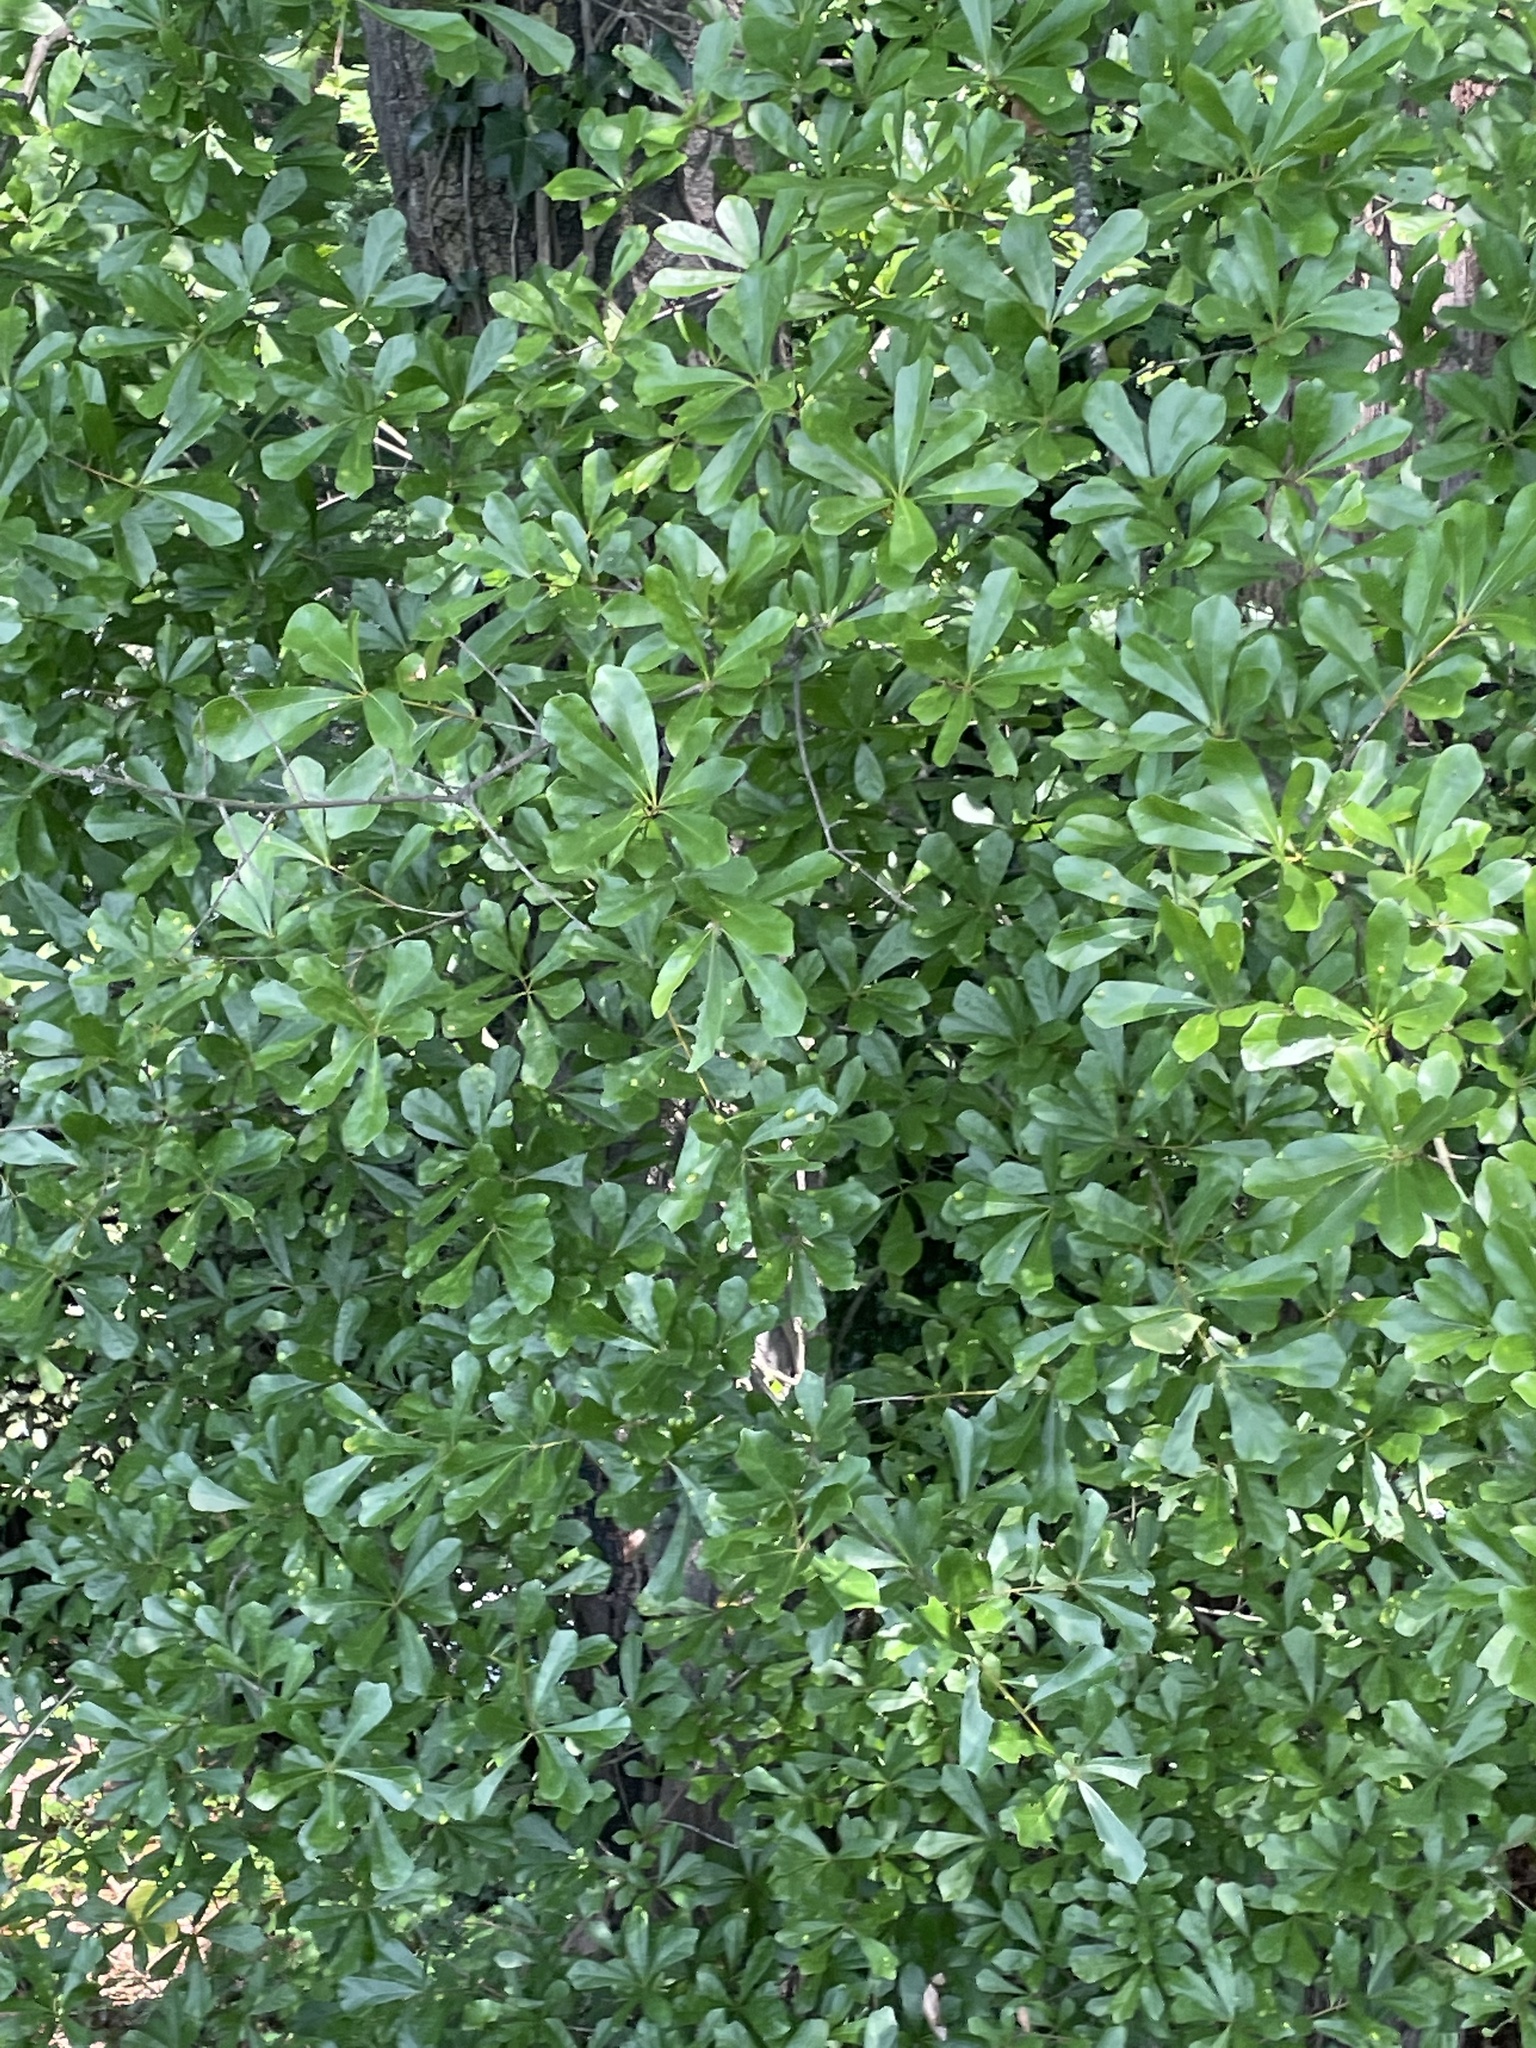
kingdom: Plantae
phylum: Tracheophyta
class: Magnoliopsida
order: Fagales
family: Fagaceae
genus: Quercus
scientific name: Quercus nigra
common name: Water oak
